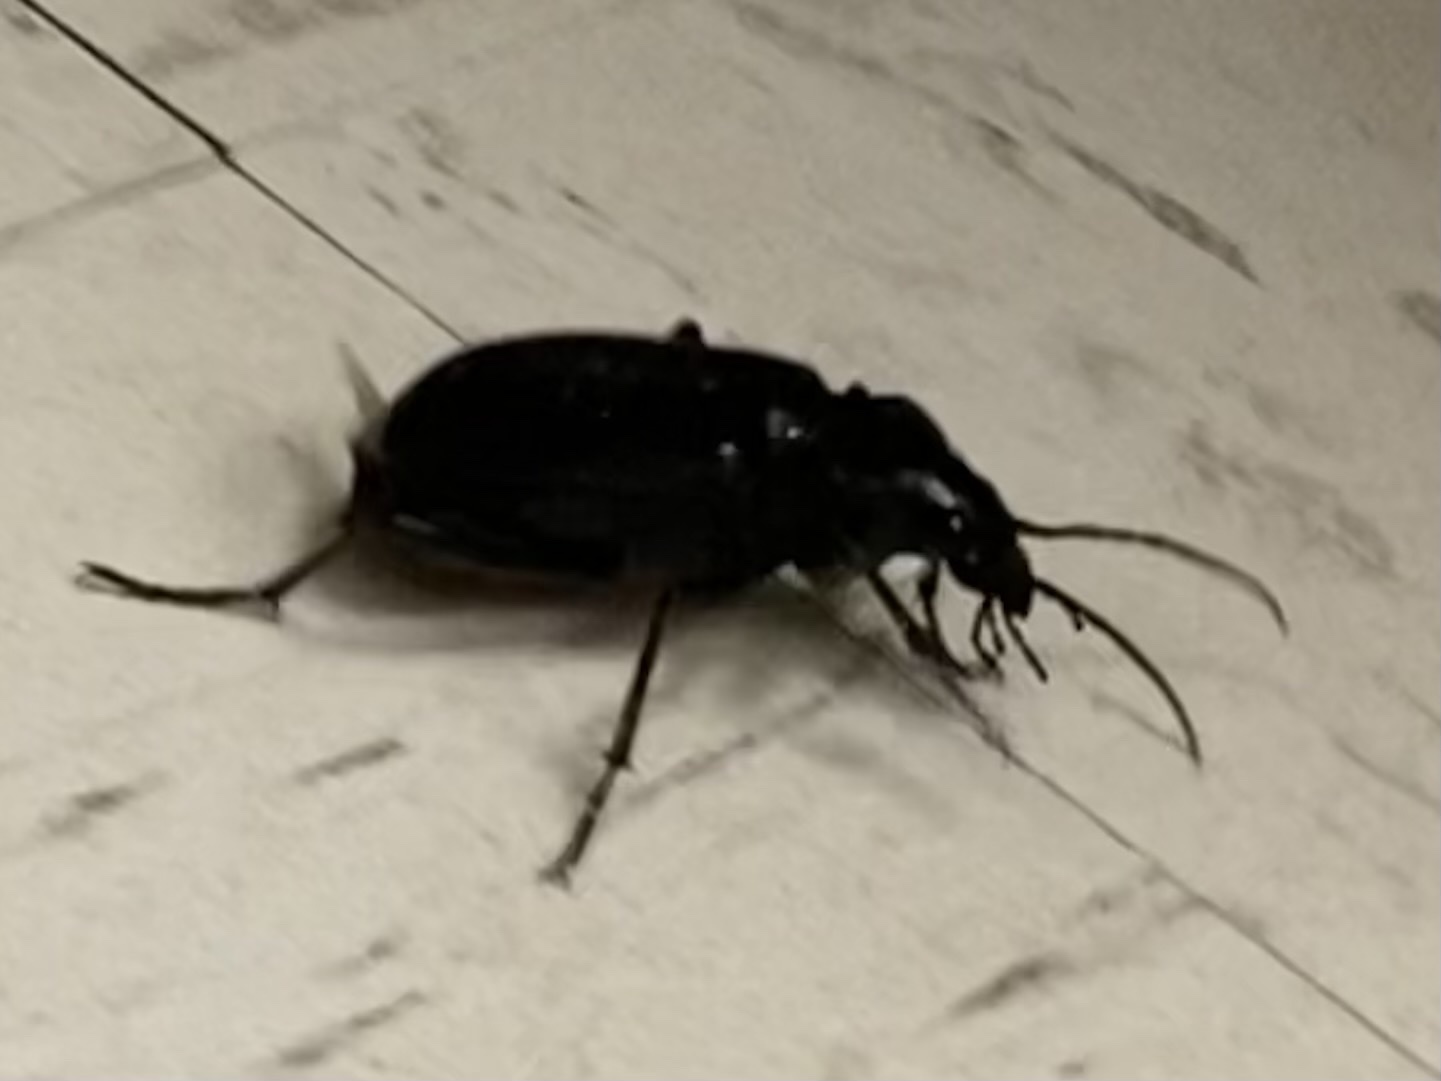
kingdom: Animalia
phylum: Arthropoda
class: Insecta
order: Coleoptera
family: Carabidae
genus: Calosoma
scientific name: Calosoma
